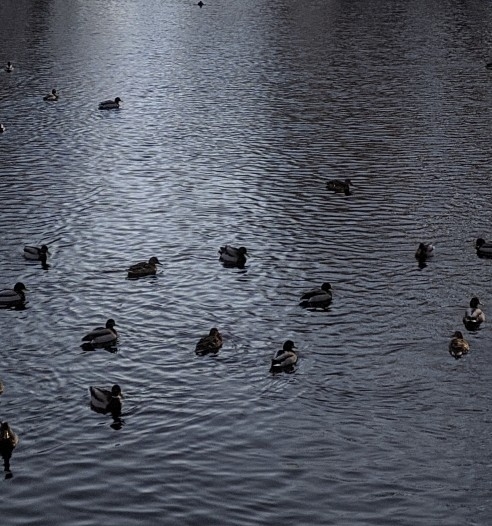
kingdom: Animalia
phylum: Chordata
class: Aves
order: Anseriformes
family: Anatidae
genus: Anas
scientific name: Anas platyrhynchos
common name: Mallard
